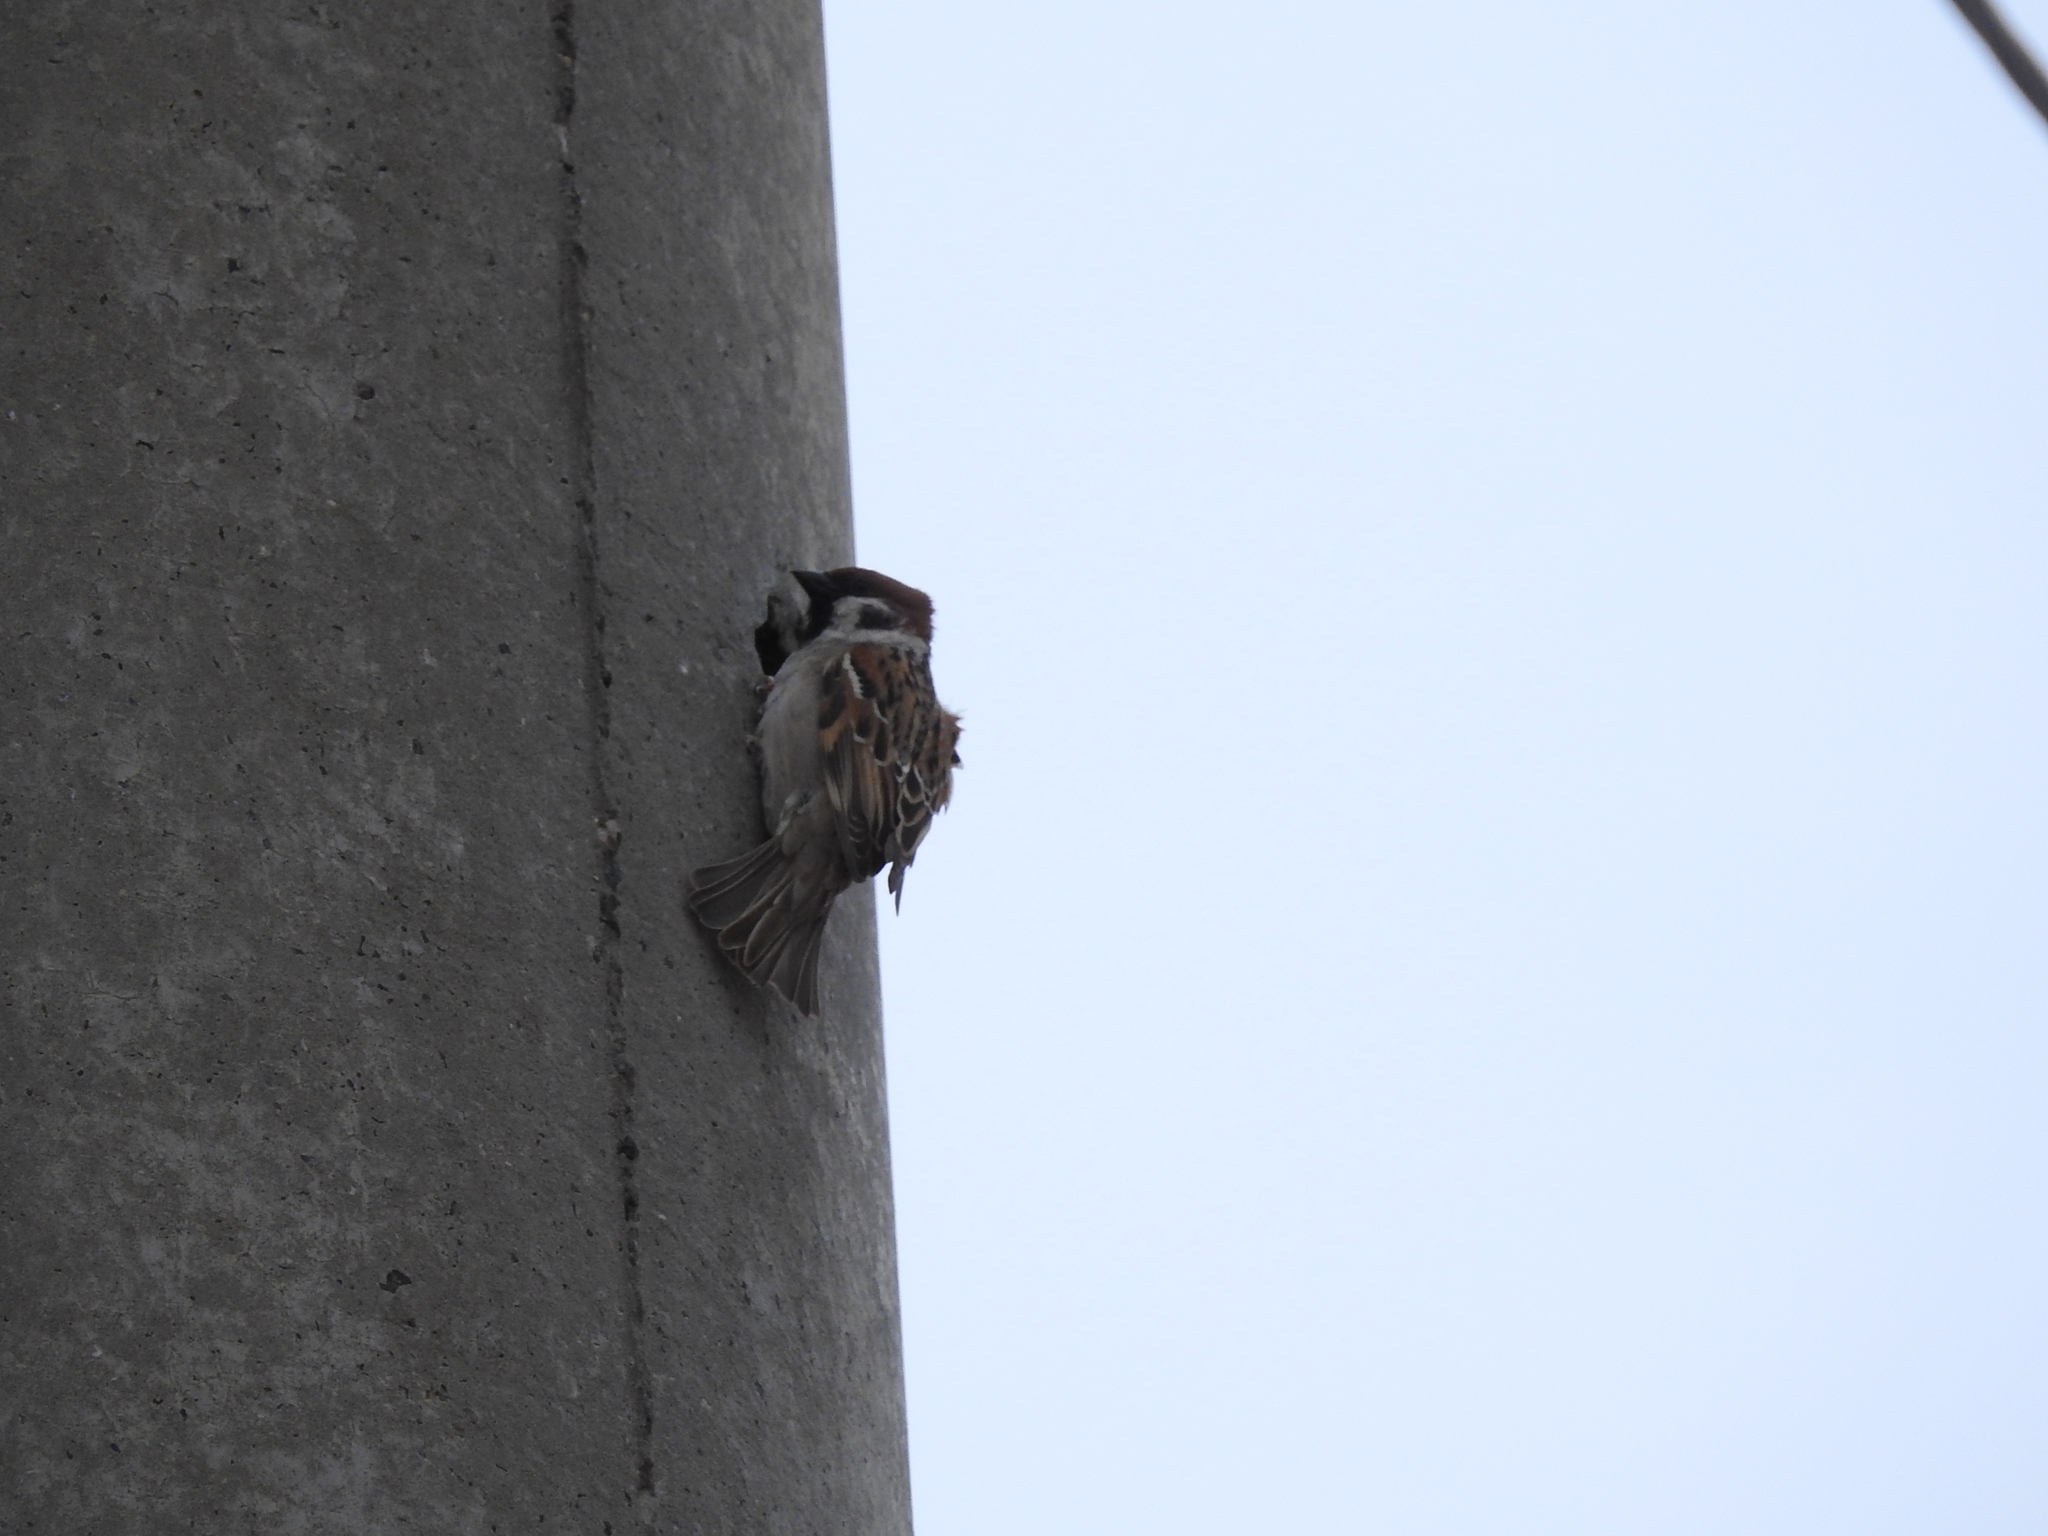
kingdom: Animalia
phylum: Chordata
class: Aves
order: Passeriformes
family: Passeridae
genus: Passer
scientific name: Passer montanus
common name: Eurasian tree sparrow
